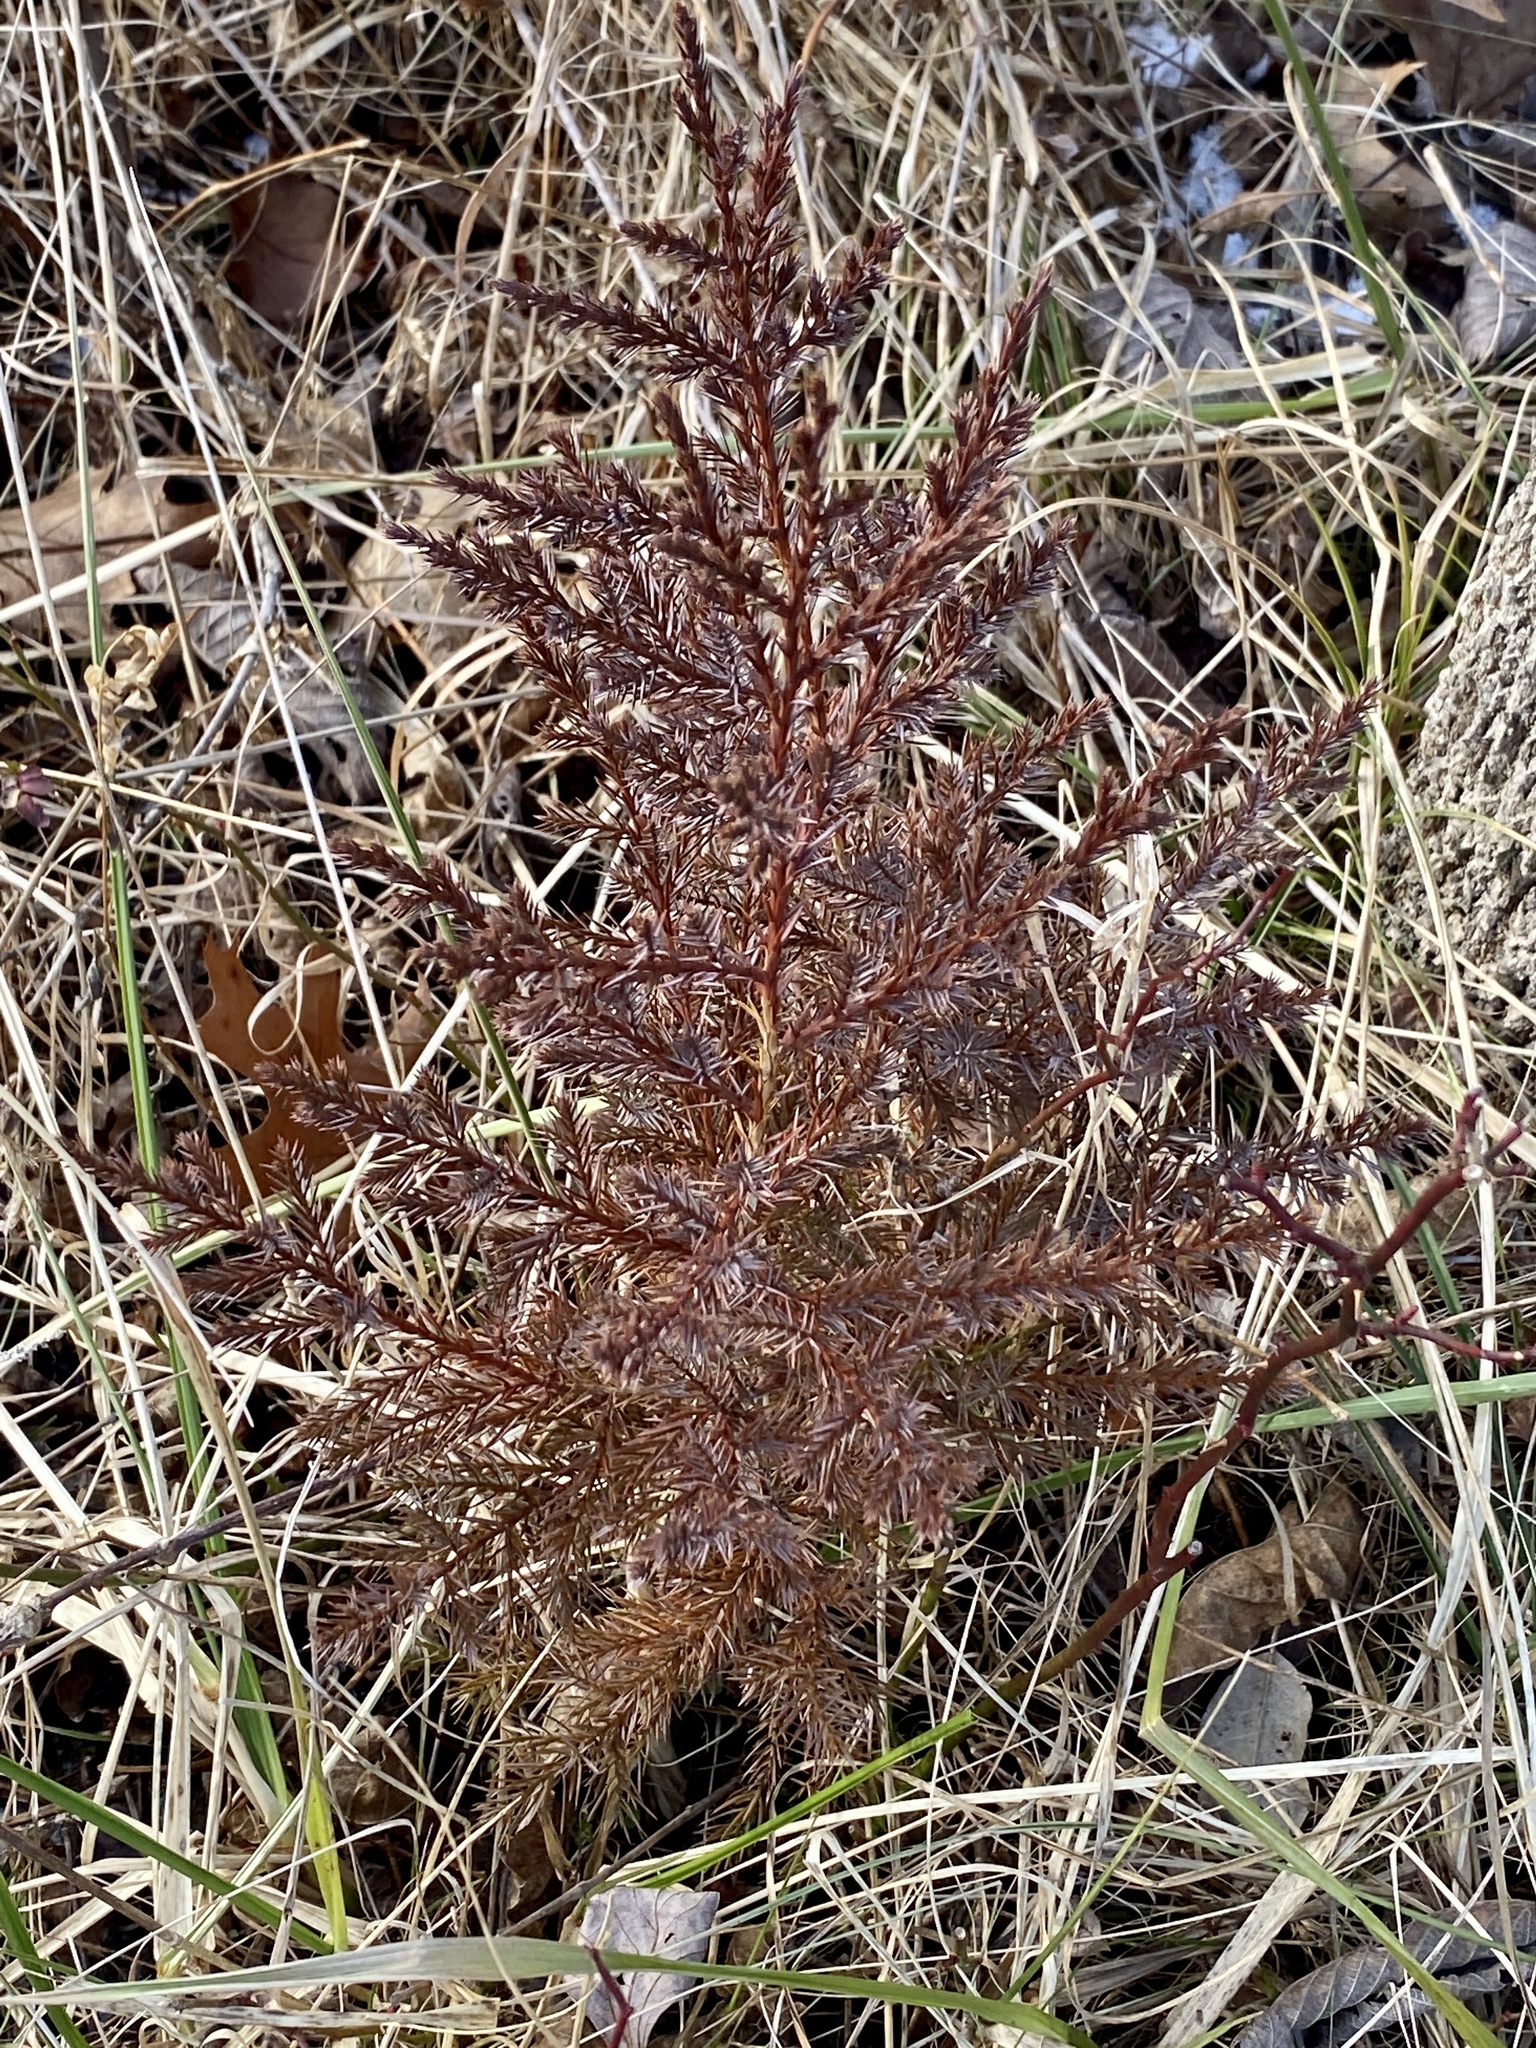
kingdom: Plantae
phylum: Tracheophyta
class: Pinopsida
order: Pinales
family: Cupressaceae
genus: Juniperus
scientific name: Juniperus virginiana
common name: Red juniper
